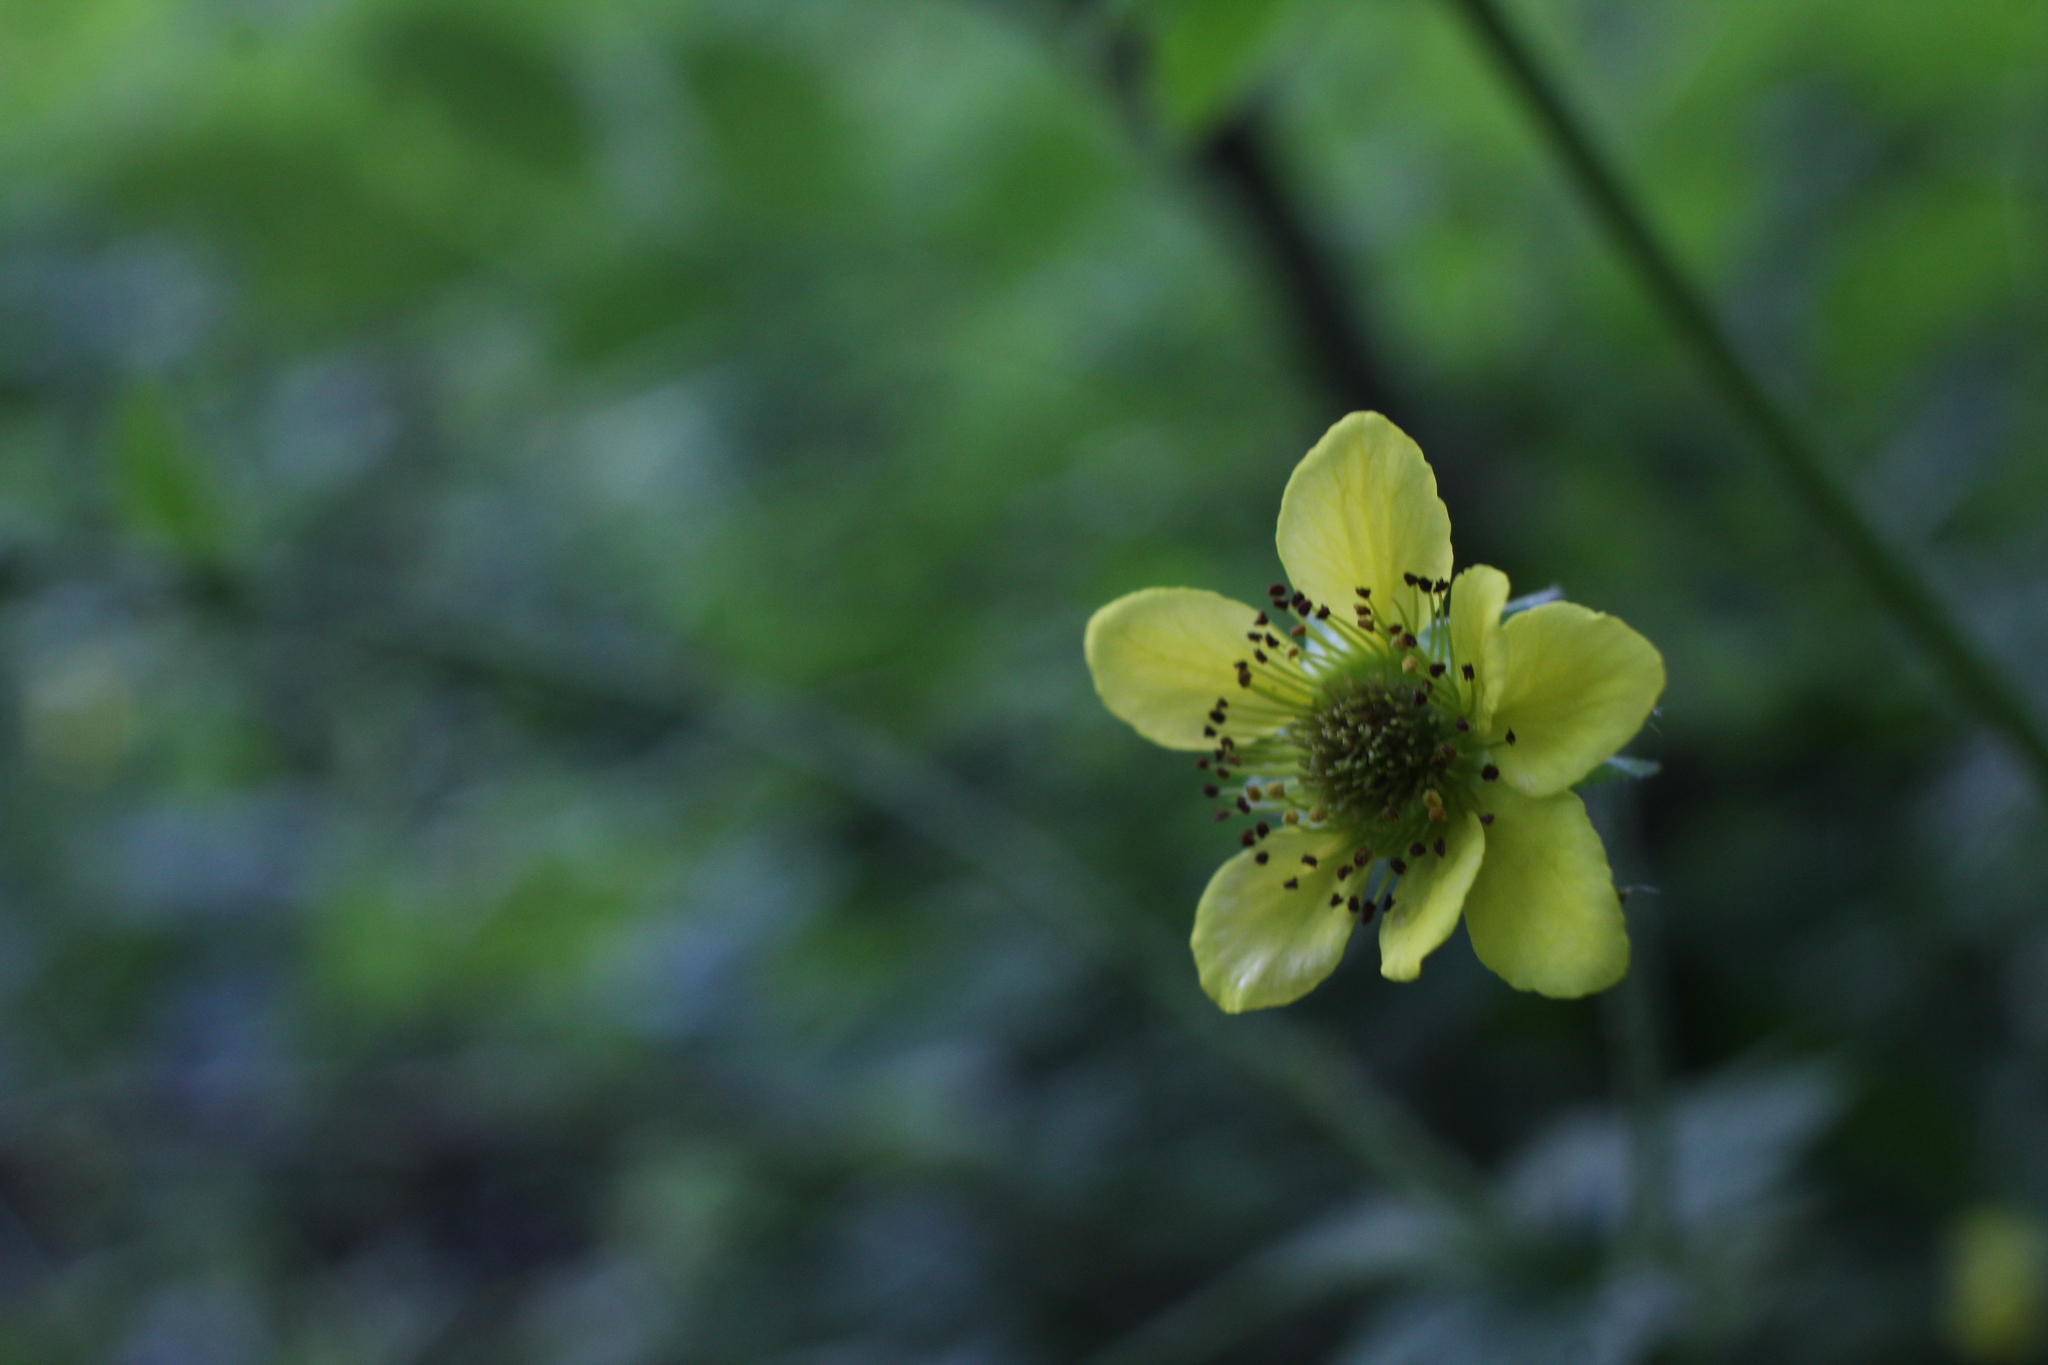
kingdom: Plantae
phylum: Tracheophyta
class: Magnoliopsida
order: Rosales
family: Rosaceae
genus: Geum
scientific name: Geum urbanum
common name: Wood avens
